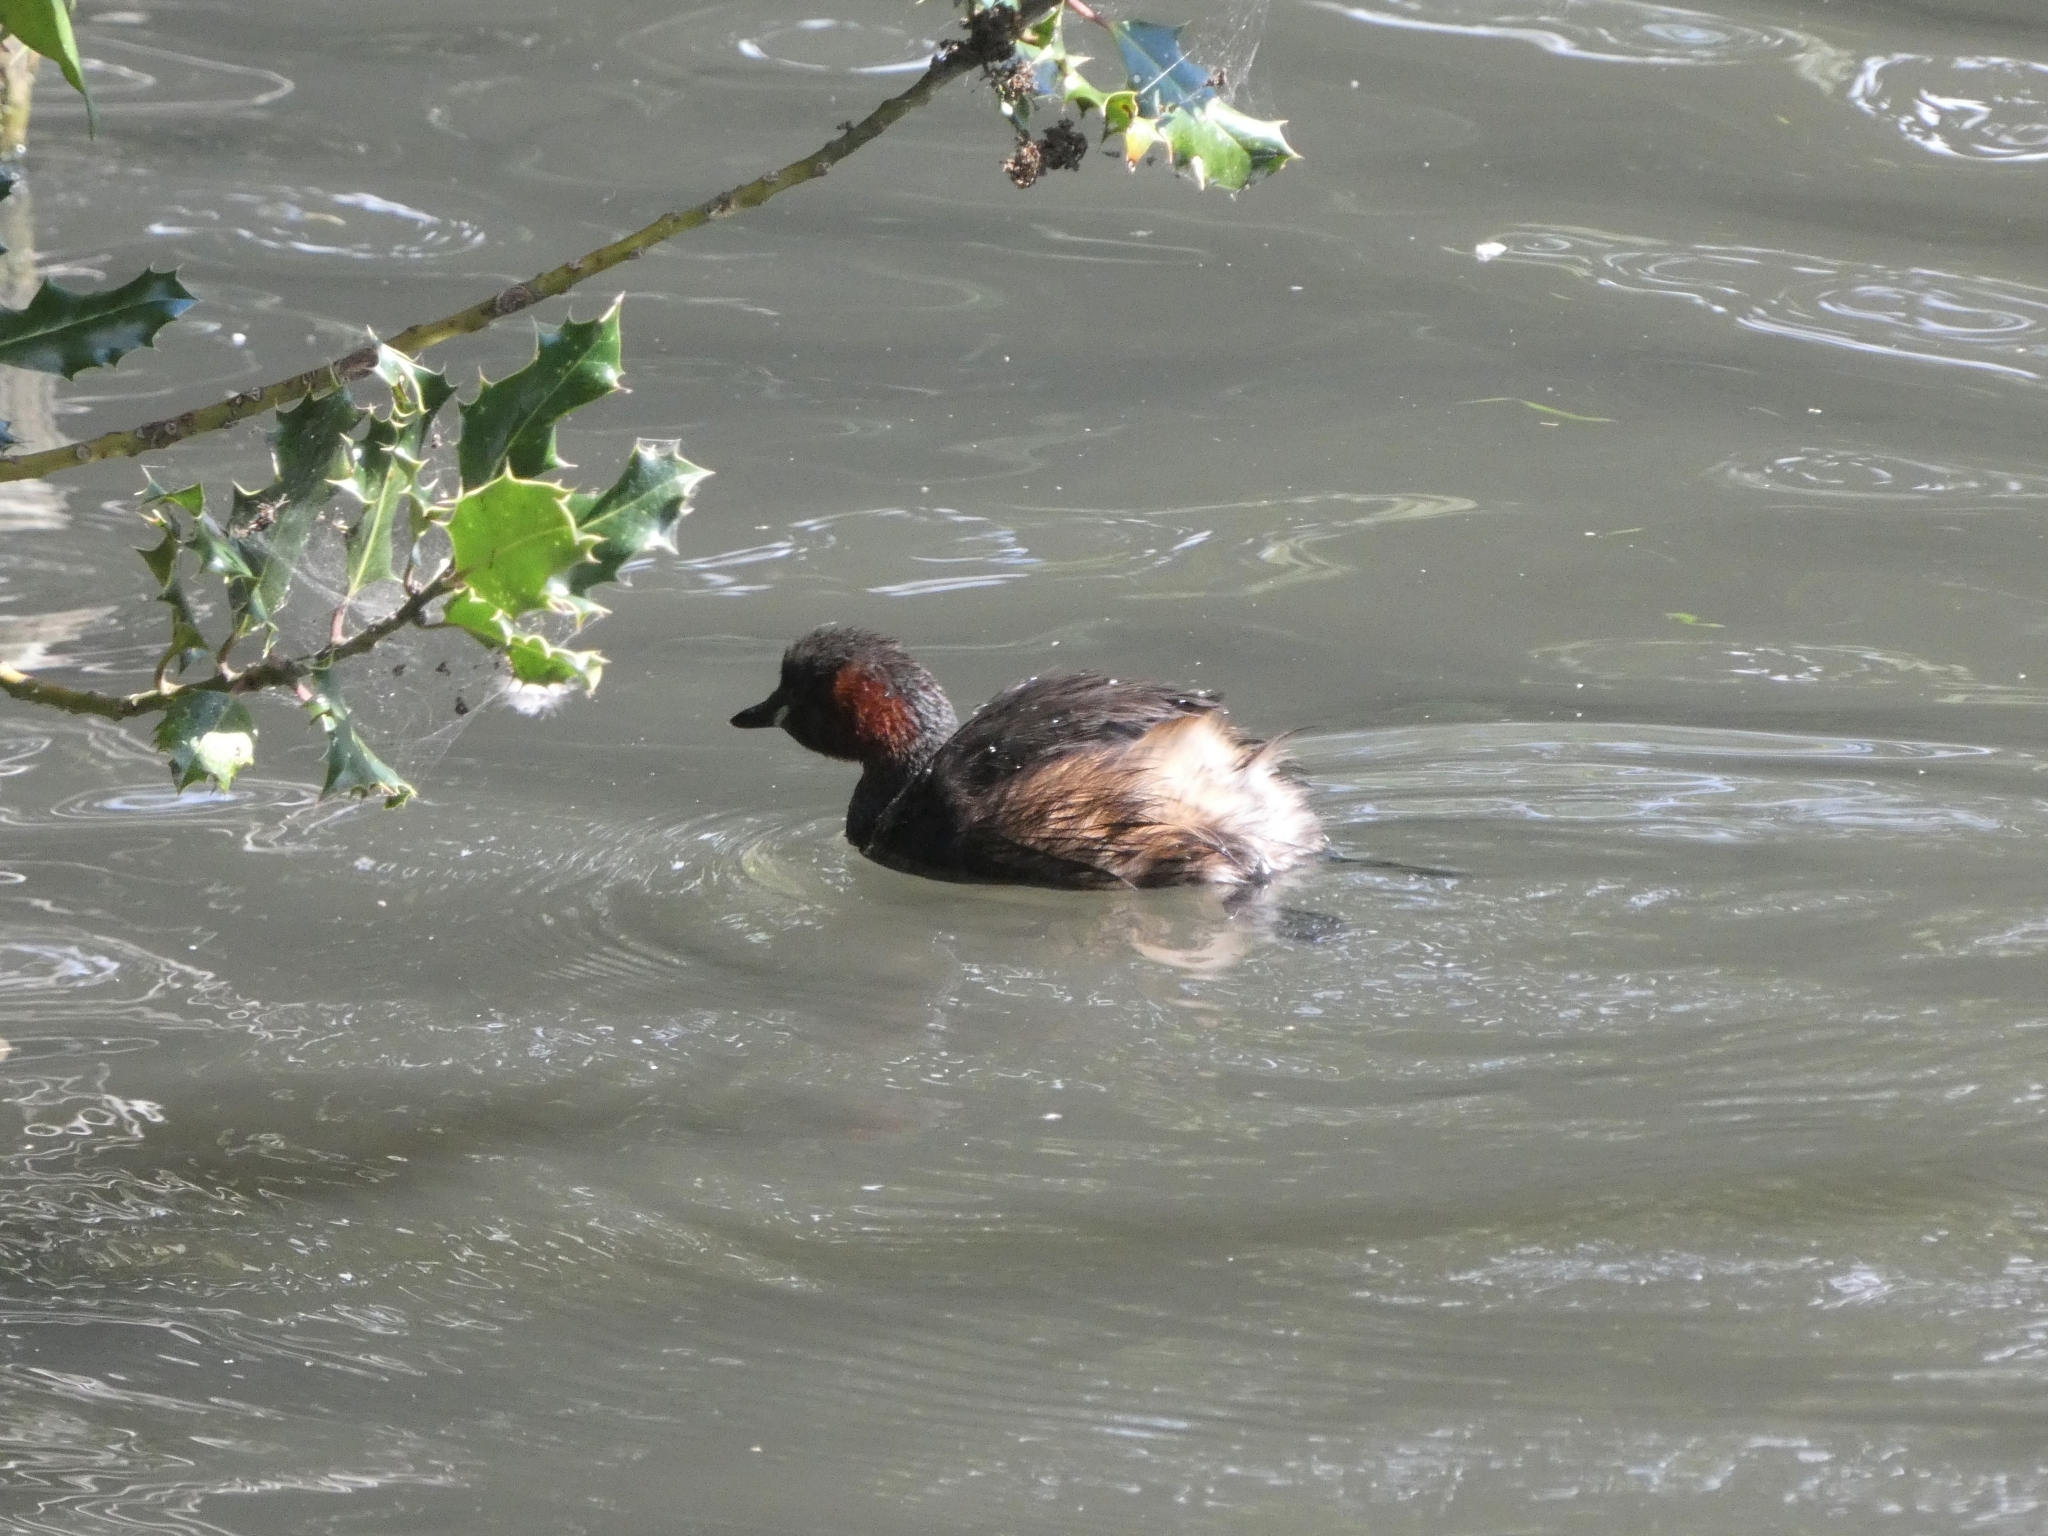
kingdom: Animalia
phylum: Chordata
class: Aves
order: Podicipediformes
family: Podicipedidae
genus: Tachybaptus
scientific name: Tachybaptus ruficollis
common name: Little grebe
